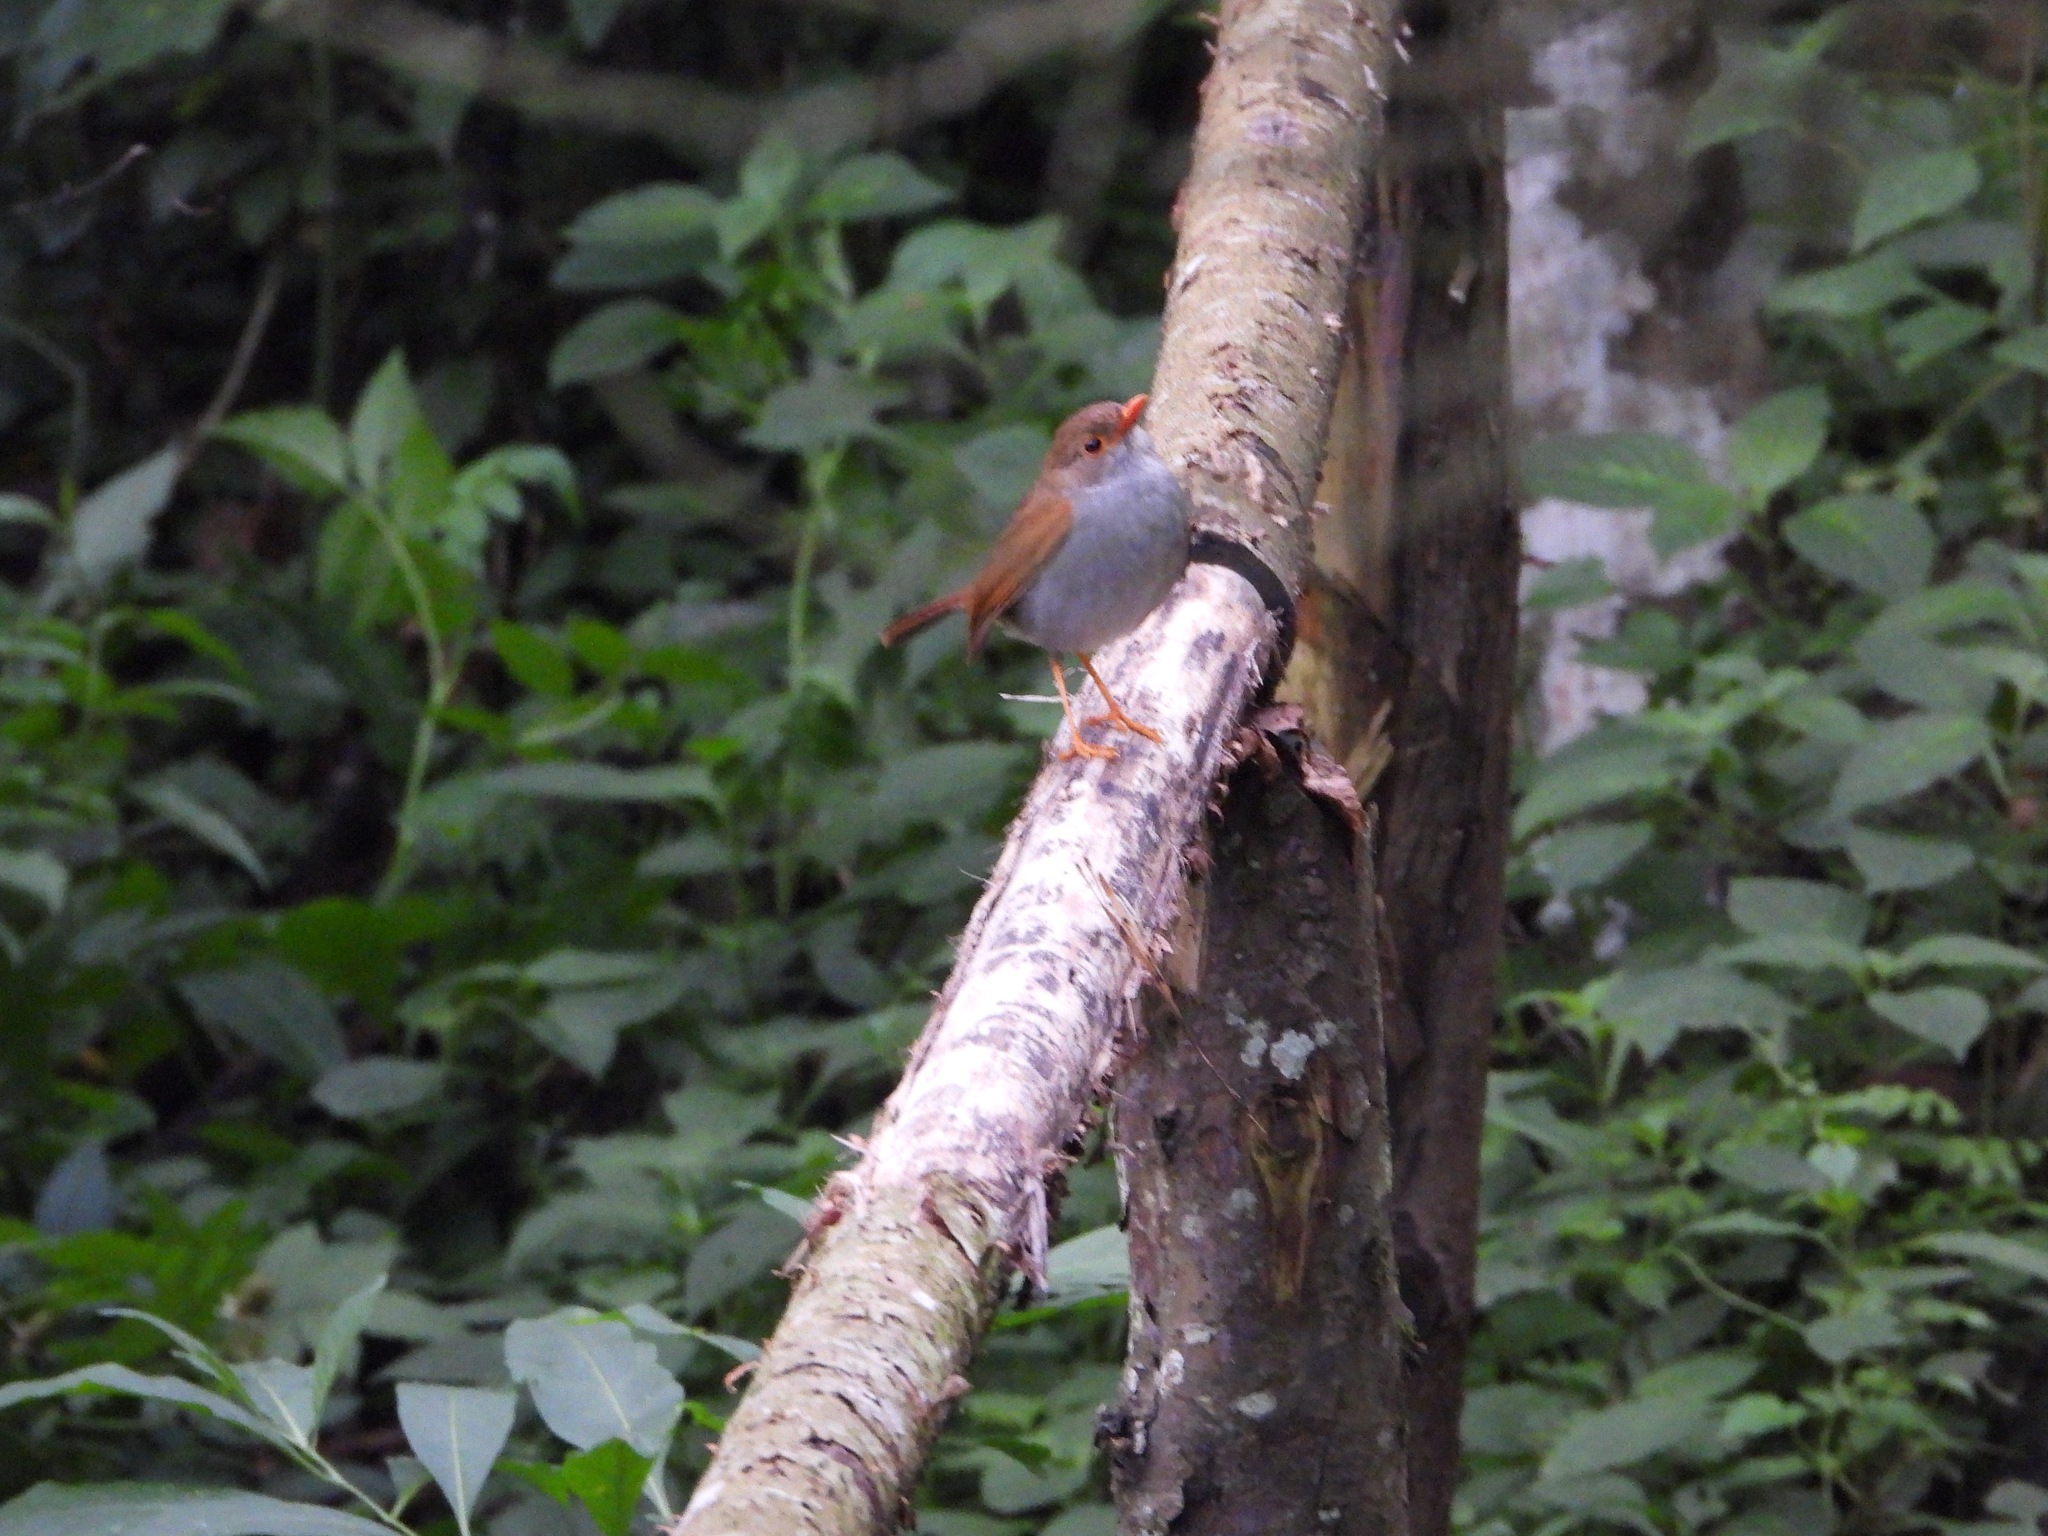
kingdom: Animalia
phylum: Chordata
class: Aves
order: Passeriformes
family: Turdidae
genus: Catharus
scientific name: Catharus aurantiirostris
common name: Orange-billed nightingale-thrush
